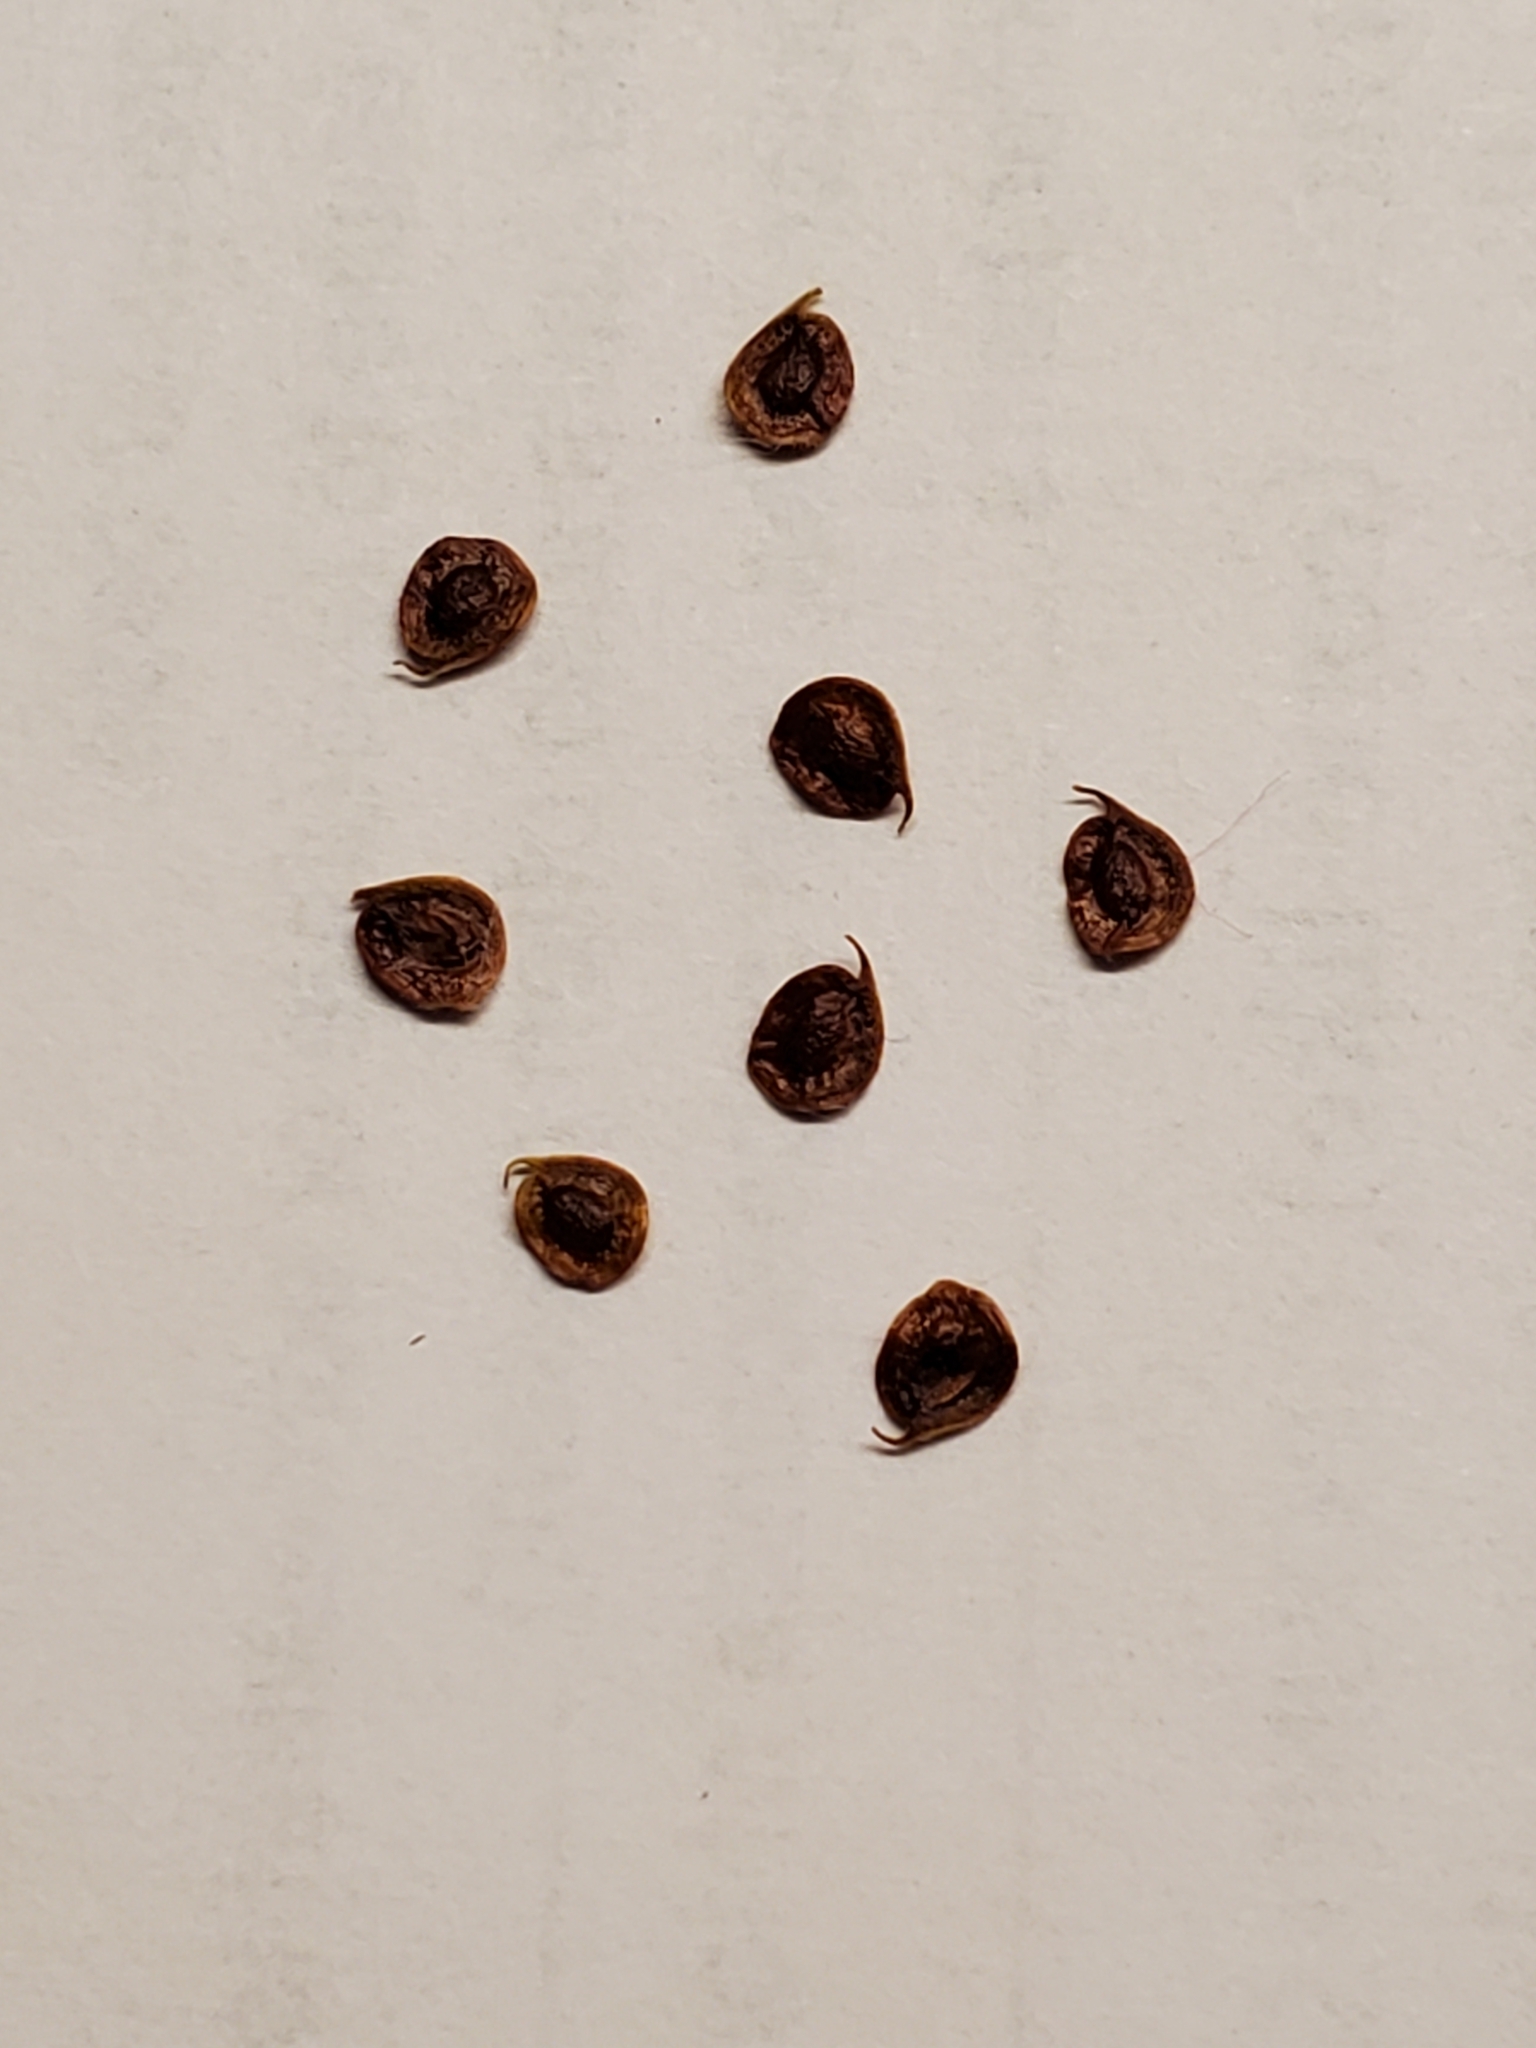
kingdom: Plantae
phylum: Tracheophyta
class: Magnoliopsida
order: Ranunculales
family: Ranunculaceae
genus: Anemone
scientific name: Anemone edwardsiana
